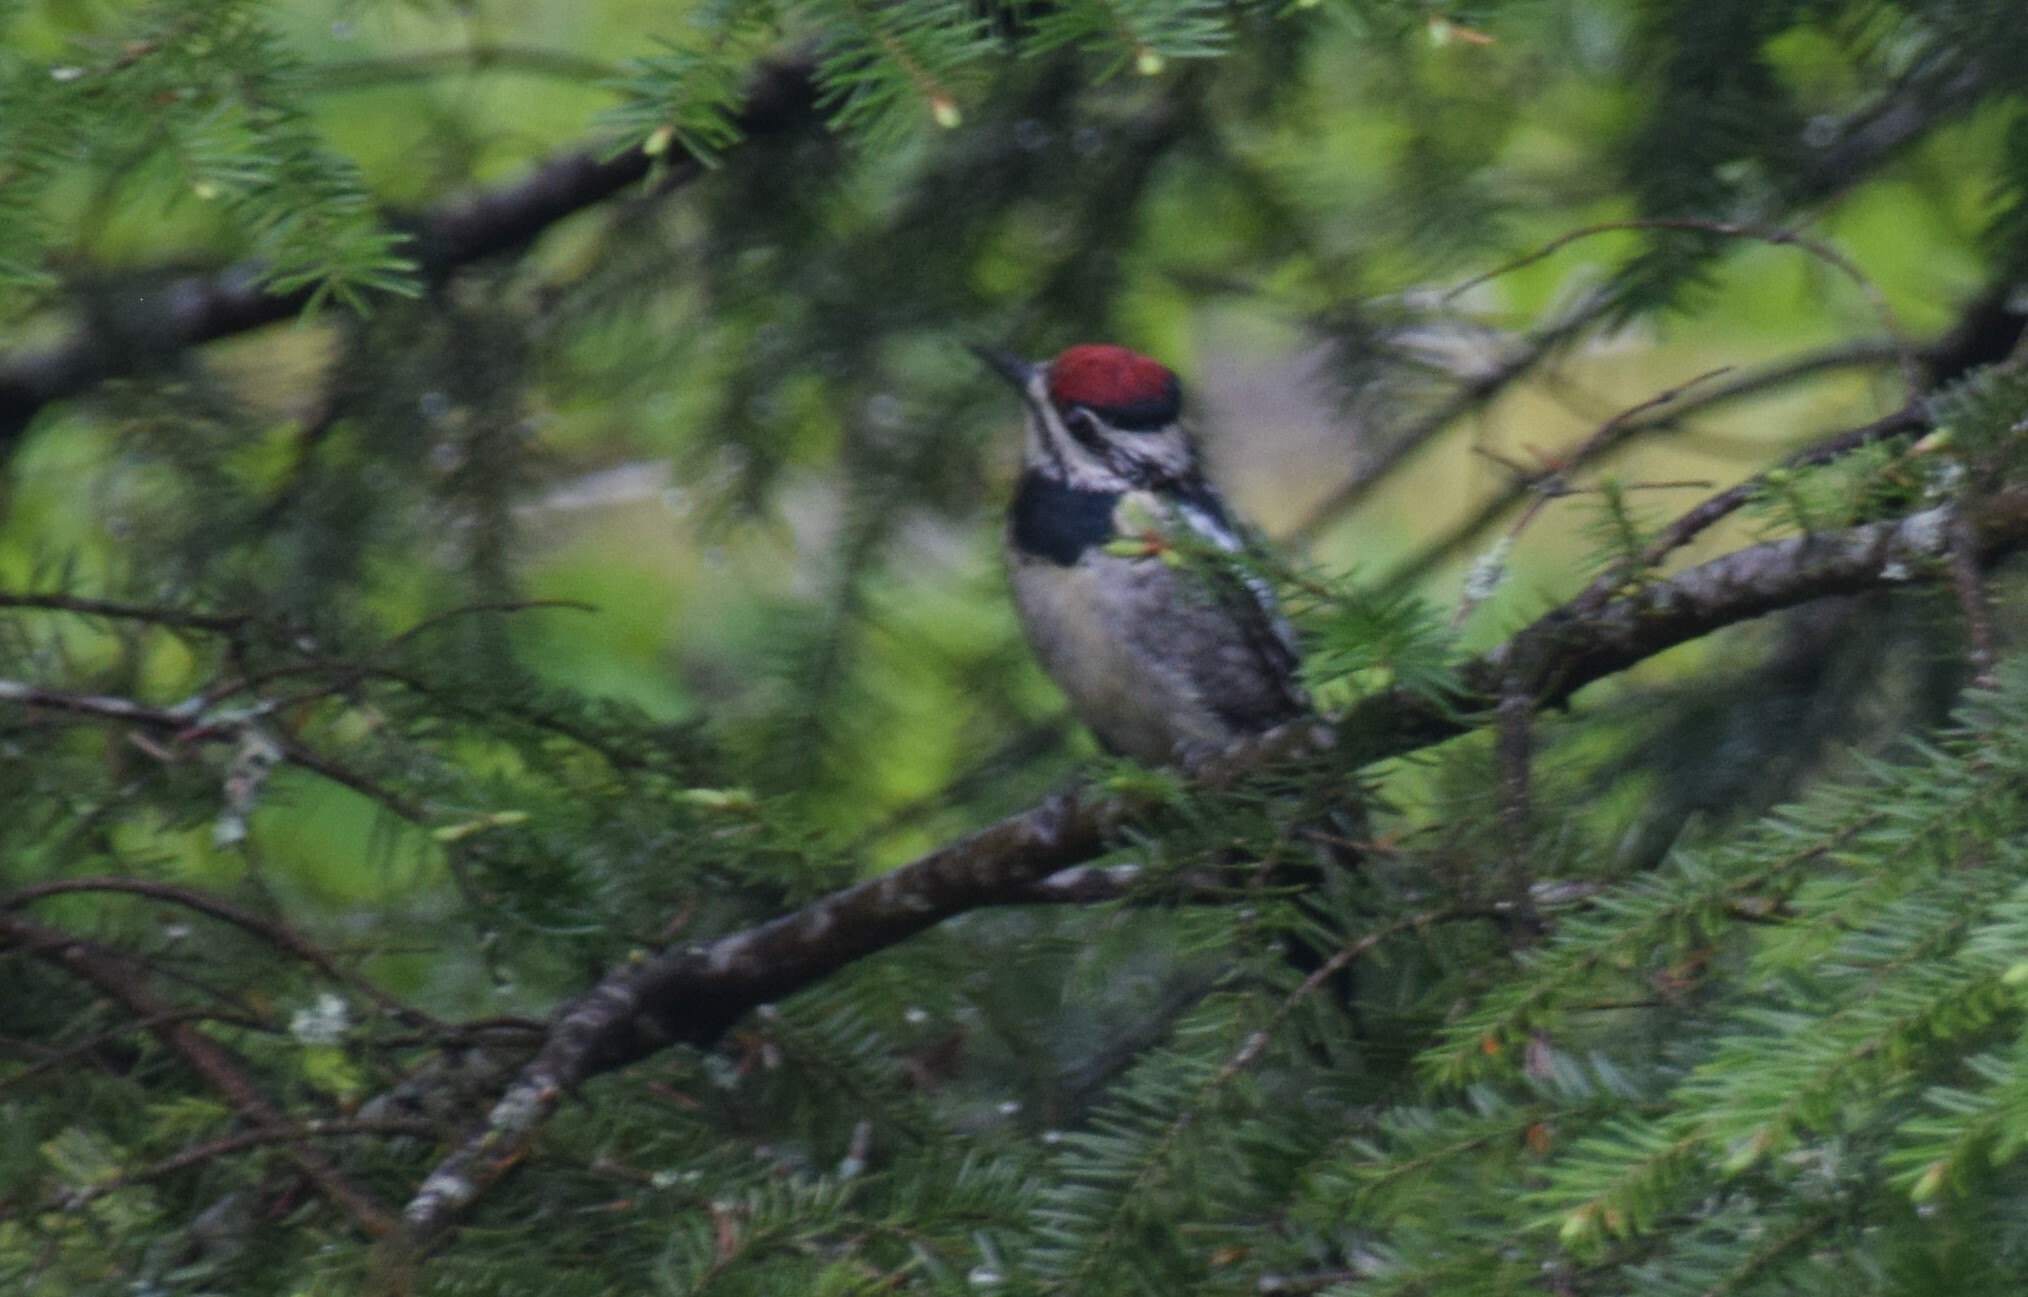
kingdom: Animalia
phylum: Chordata
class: Aves
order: Piciformes
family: Picidae
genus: Sphyrapicus
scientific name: Sphyrapicus varius
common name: Yellow-bellied sapsucker
